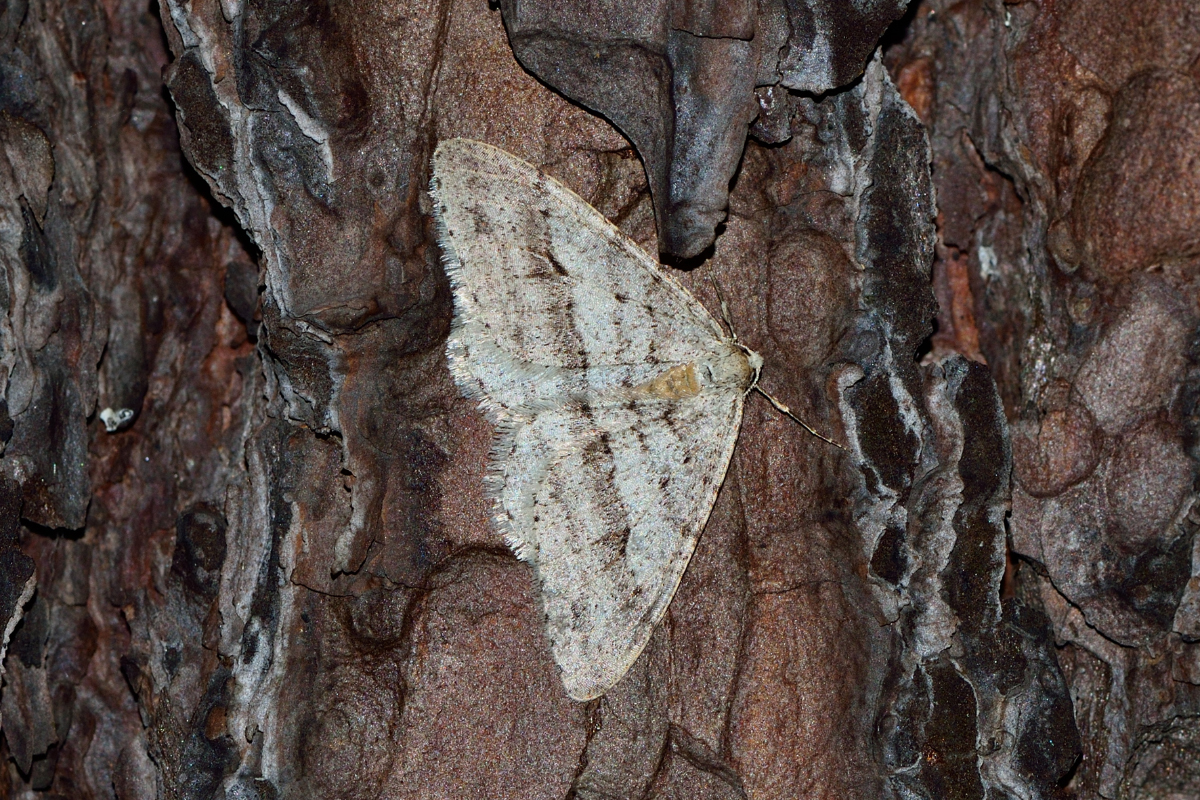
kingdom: Animalia
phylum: Arthropoda
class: Insecta
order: Lepidoptera
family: Geometridae
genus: Larerannis
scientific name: Larerannis orthogrammaria
